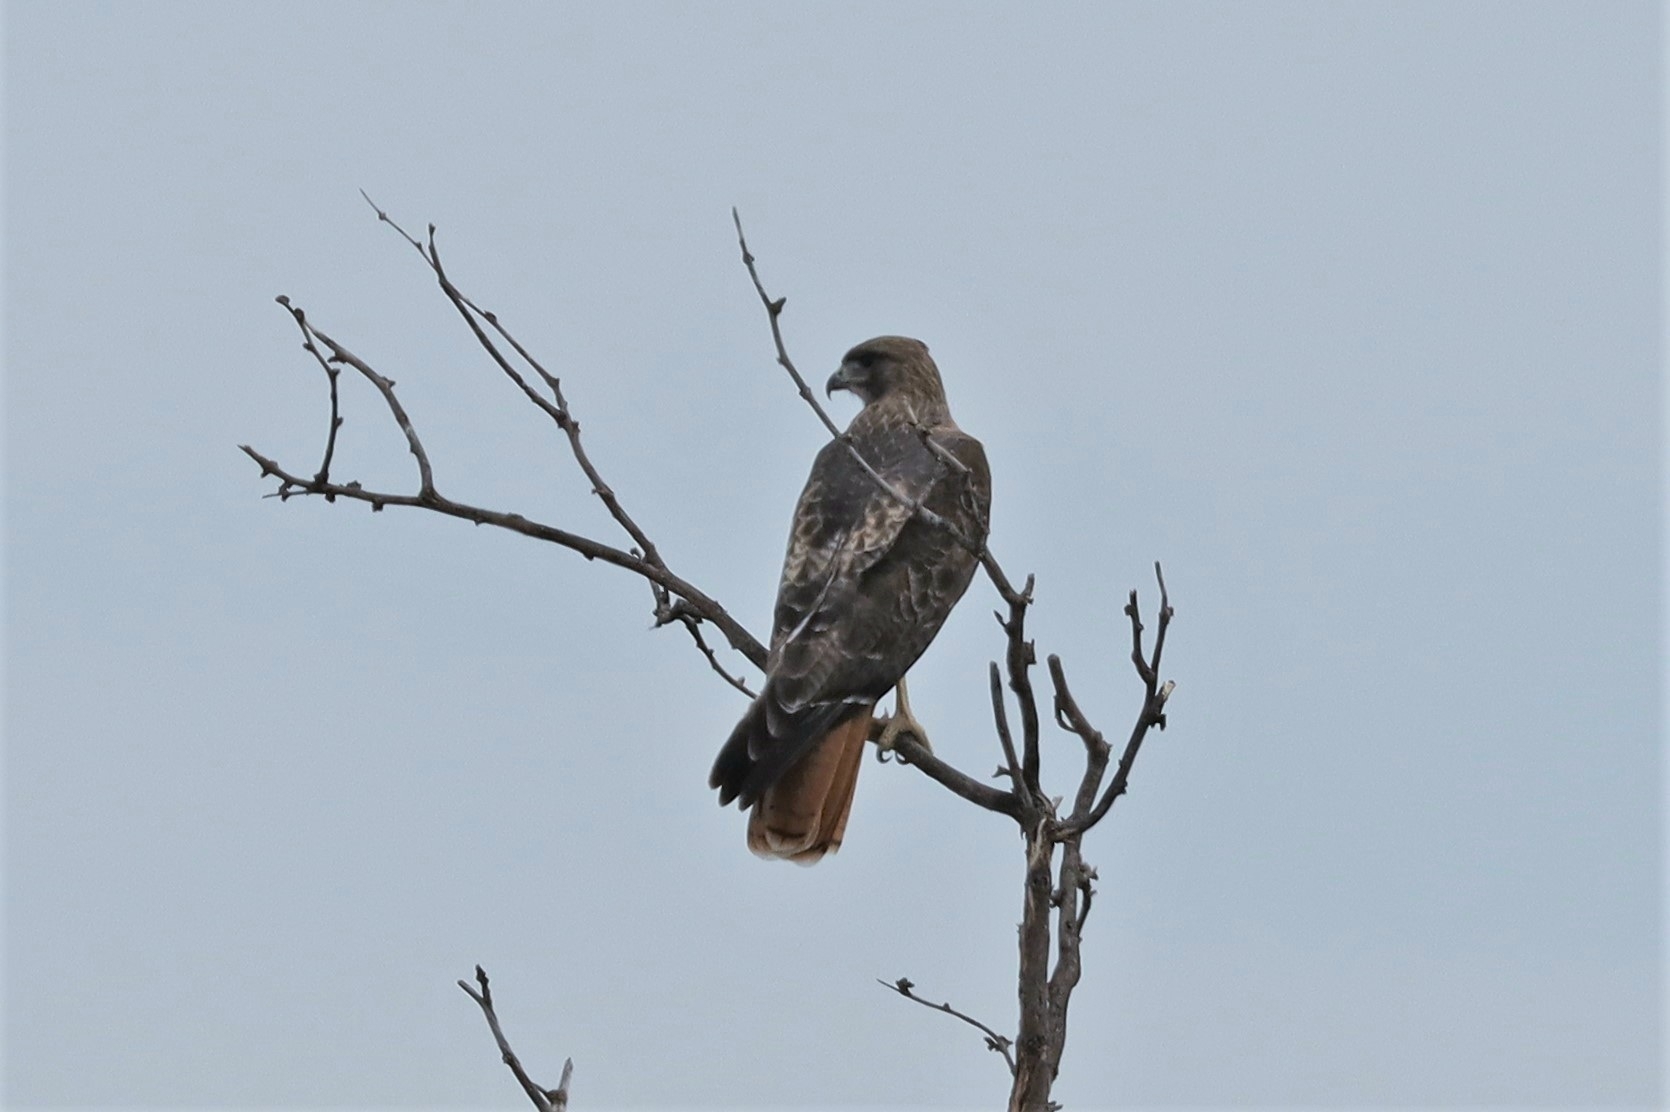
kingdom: Animalia
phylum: Chordata
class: Aves
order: Accipitriformes
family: Accipitridae
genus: Buteo
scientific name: Buteo jamaicensis
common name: Red-tailed hawk
